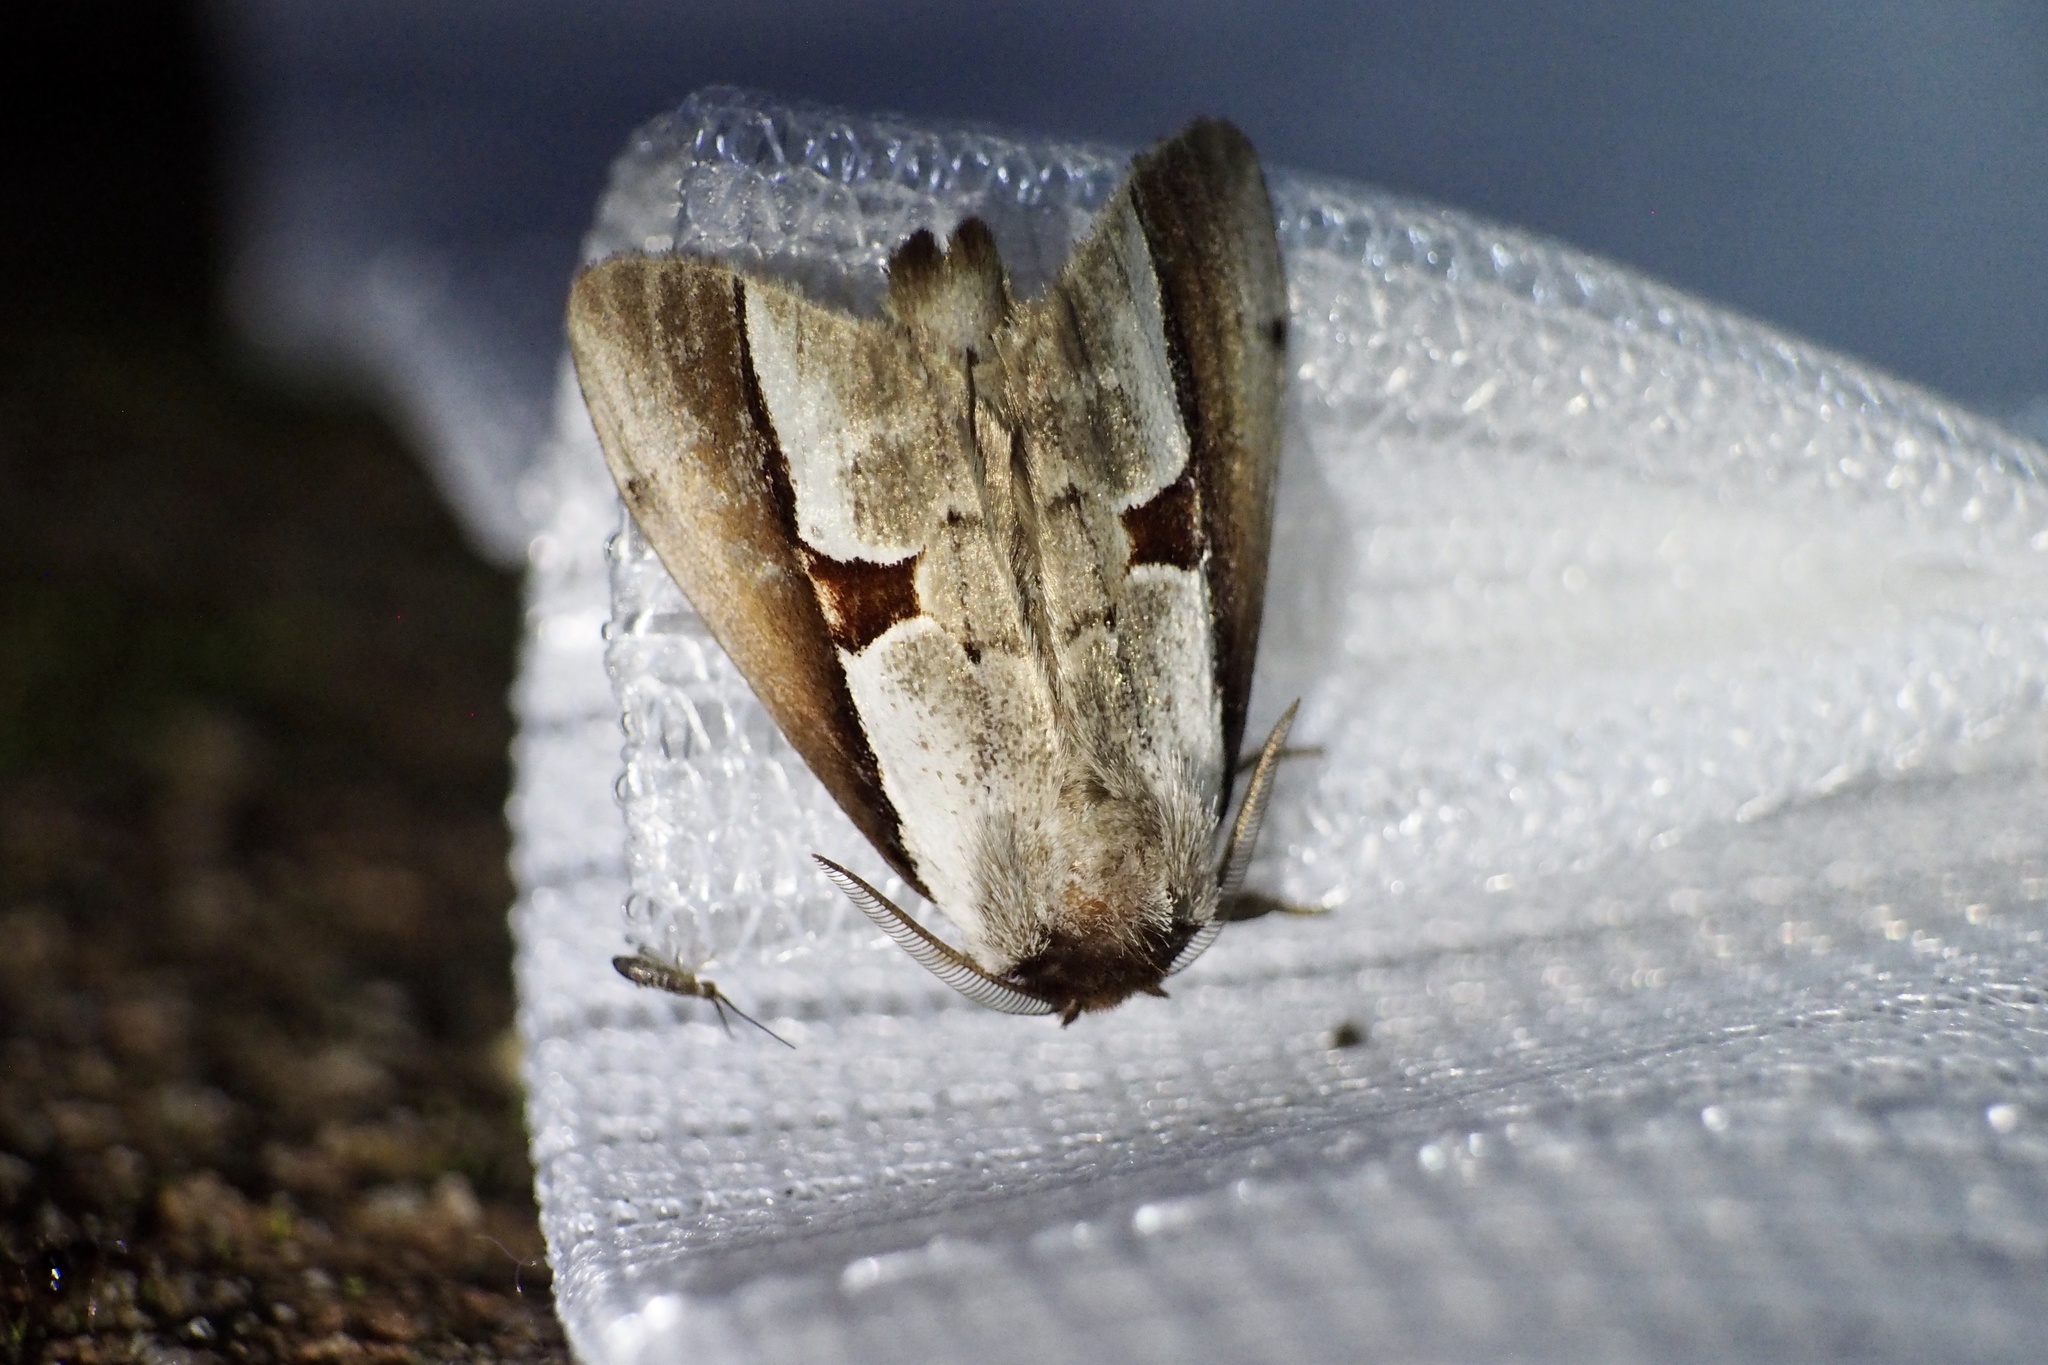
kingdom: Animalia
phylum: Arthropoda
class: Insecta
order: Lepidoptera
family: Notodontidae
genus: Nerice
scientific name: Nerice bipartita
